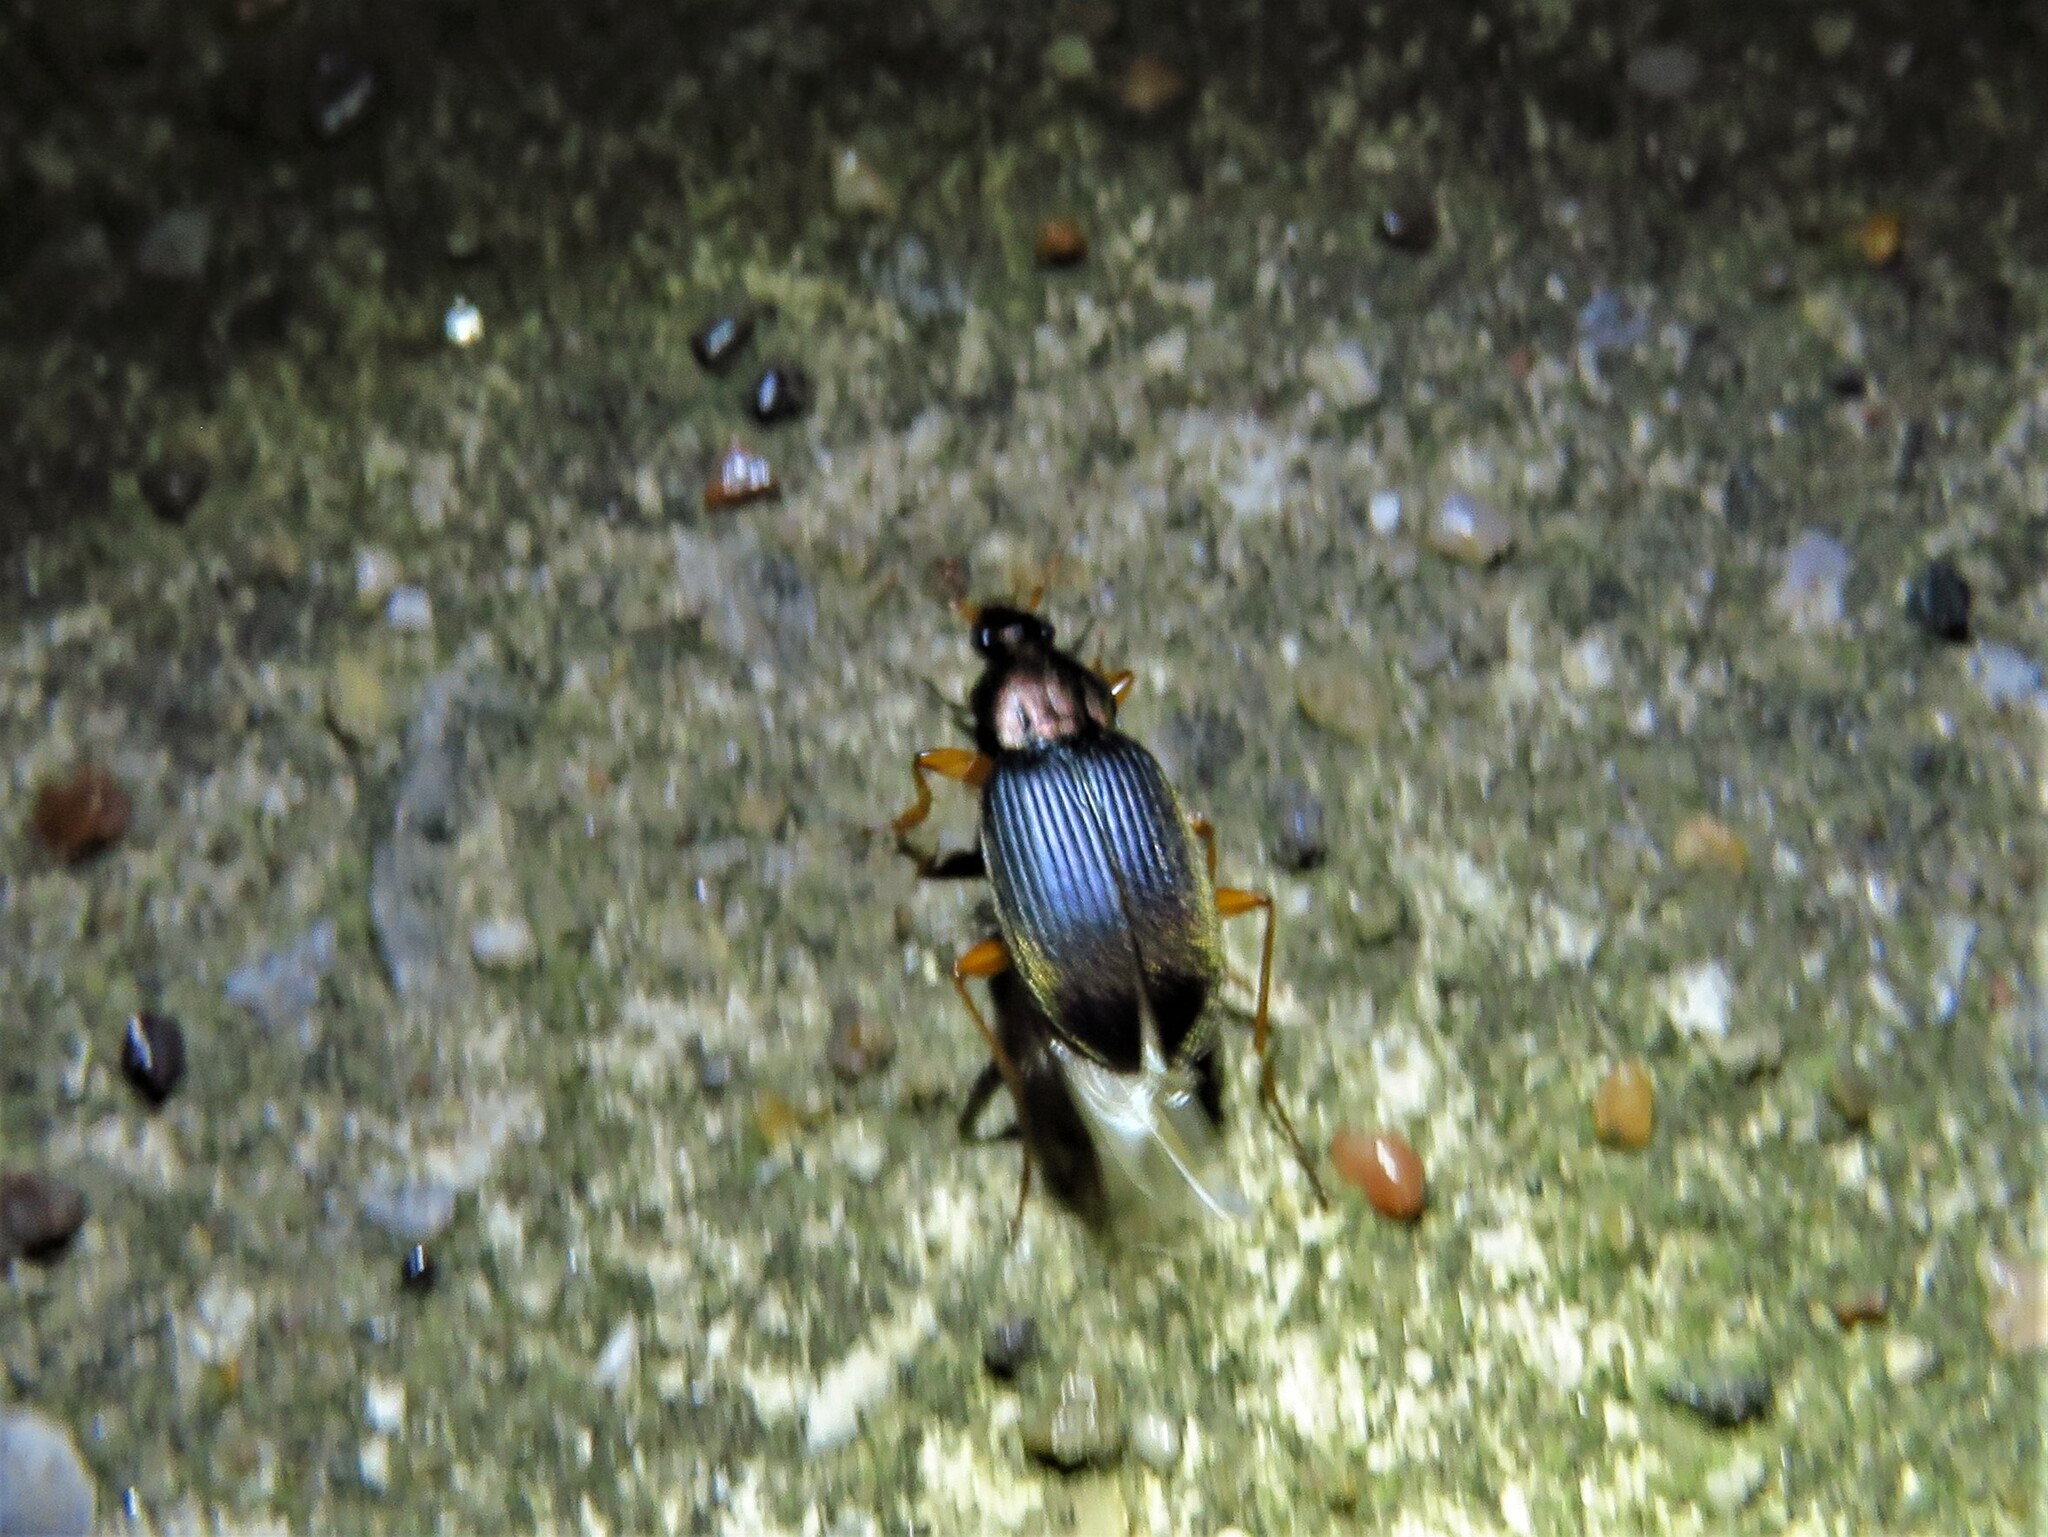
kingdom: Animalia
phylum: Arthropoda
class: Insecta
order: Coleoptera
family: Carabidae
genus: Chlaenius
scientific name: Chlaenius tricolor
